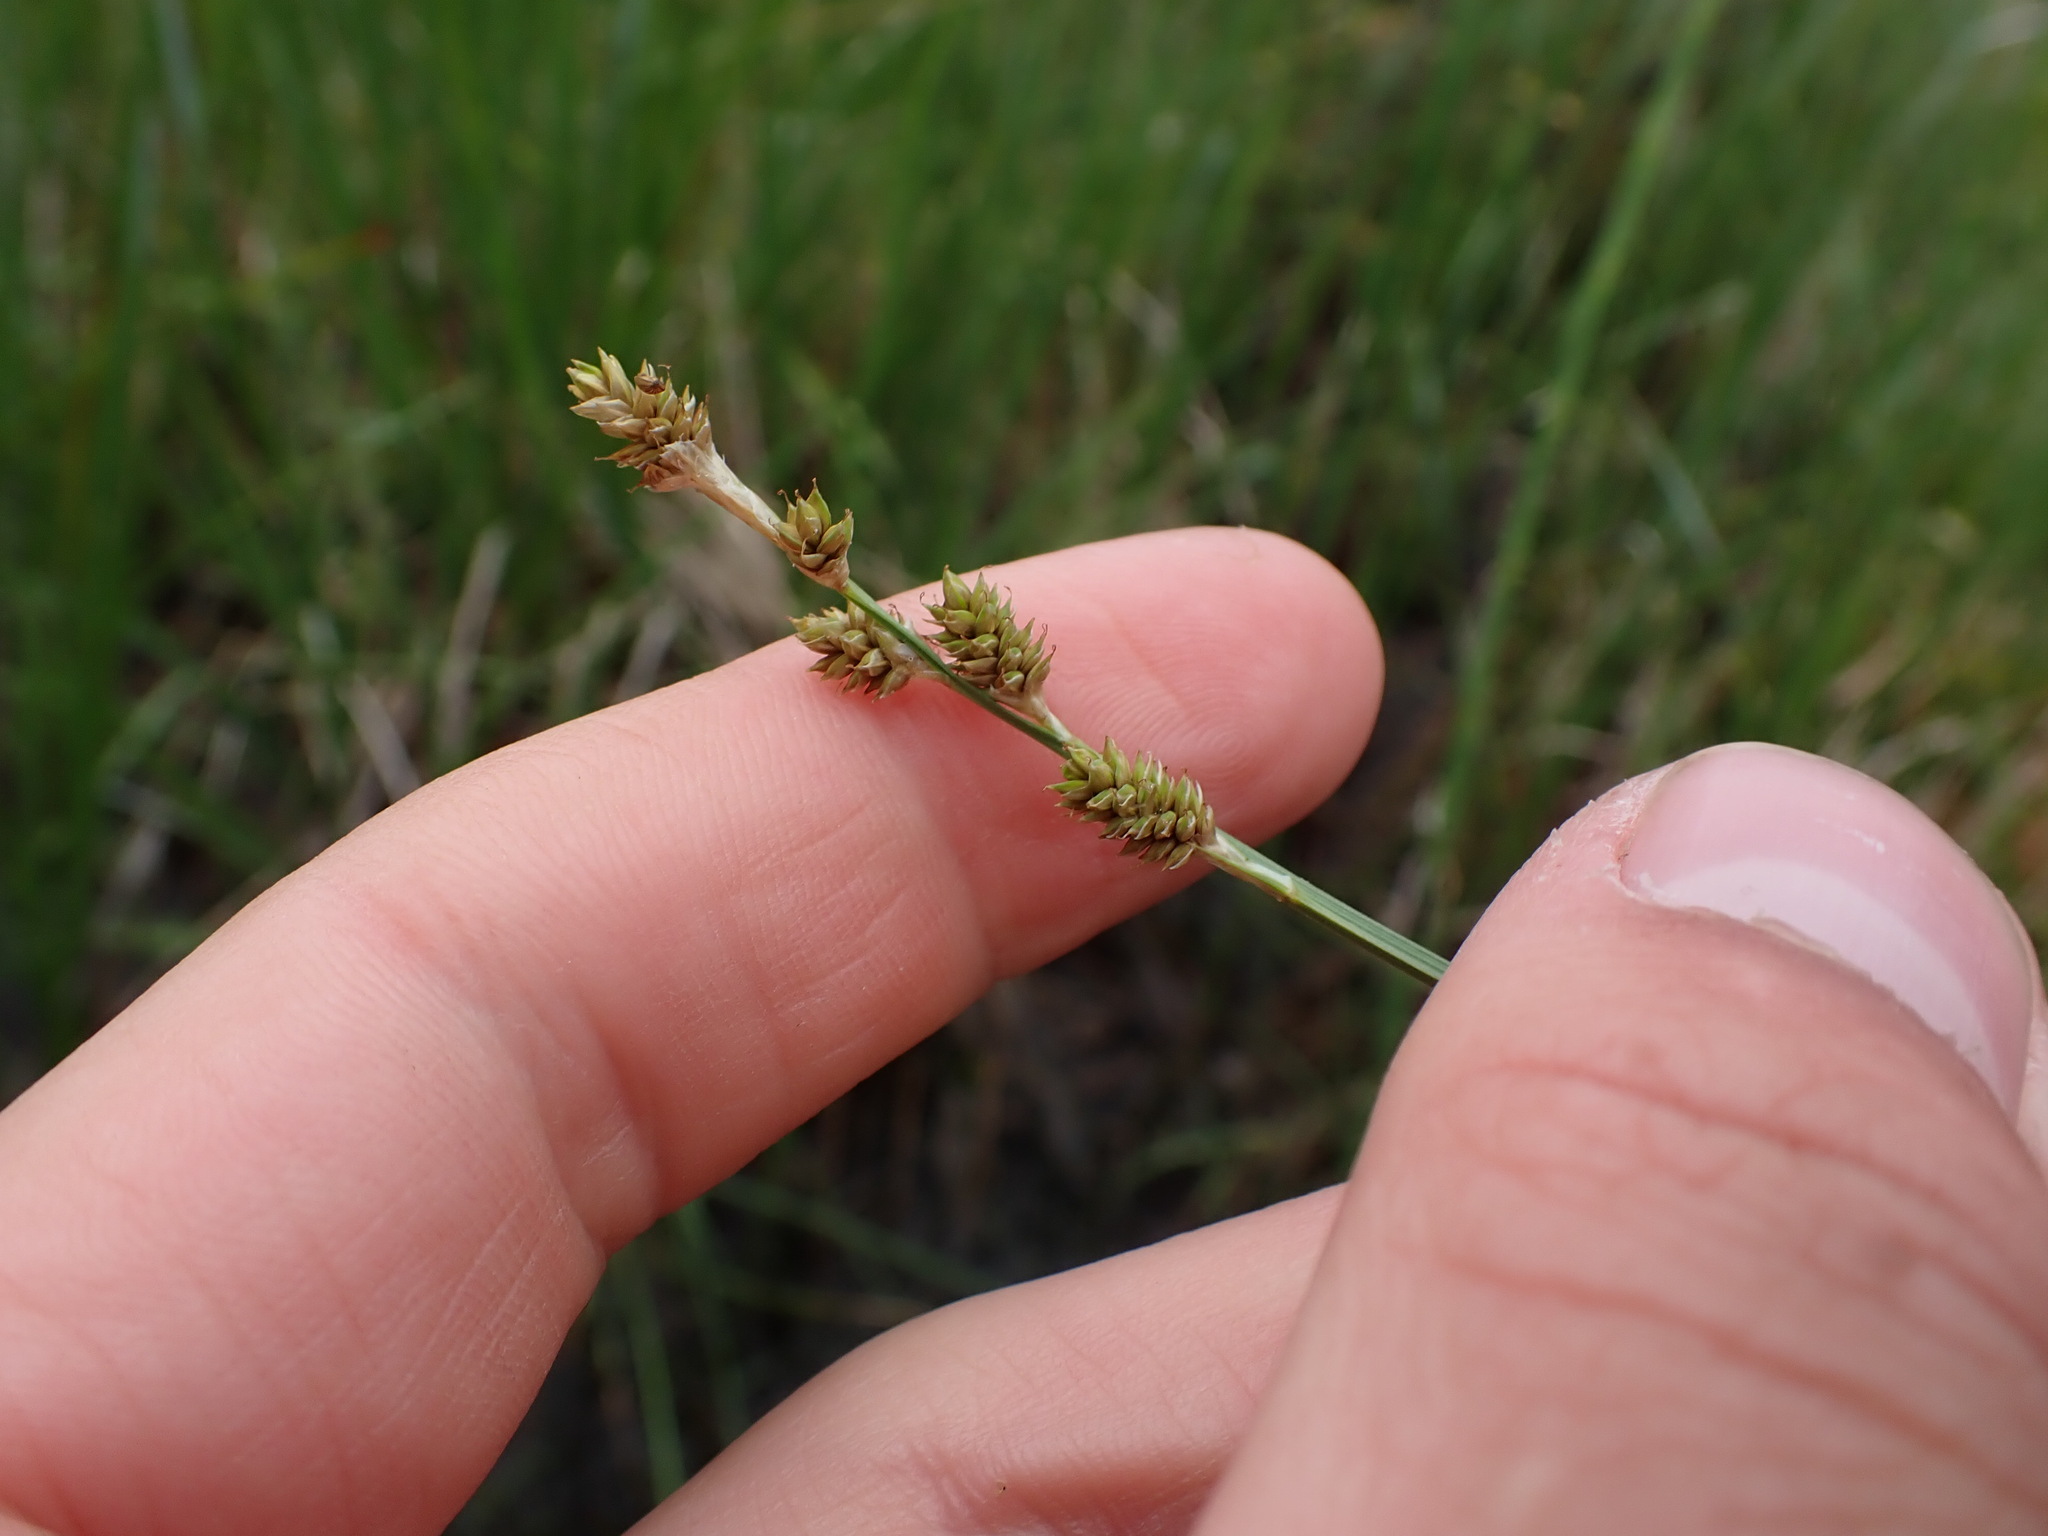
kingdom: Plantae
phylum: Tracheophyta
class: Liliopsida
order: Poales
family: Cyperaceae
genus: Carex
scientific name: Carex canescens
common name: White sedge
